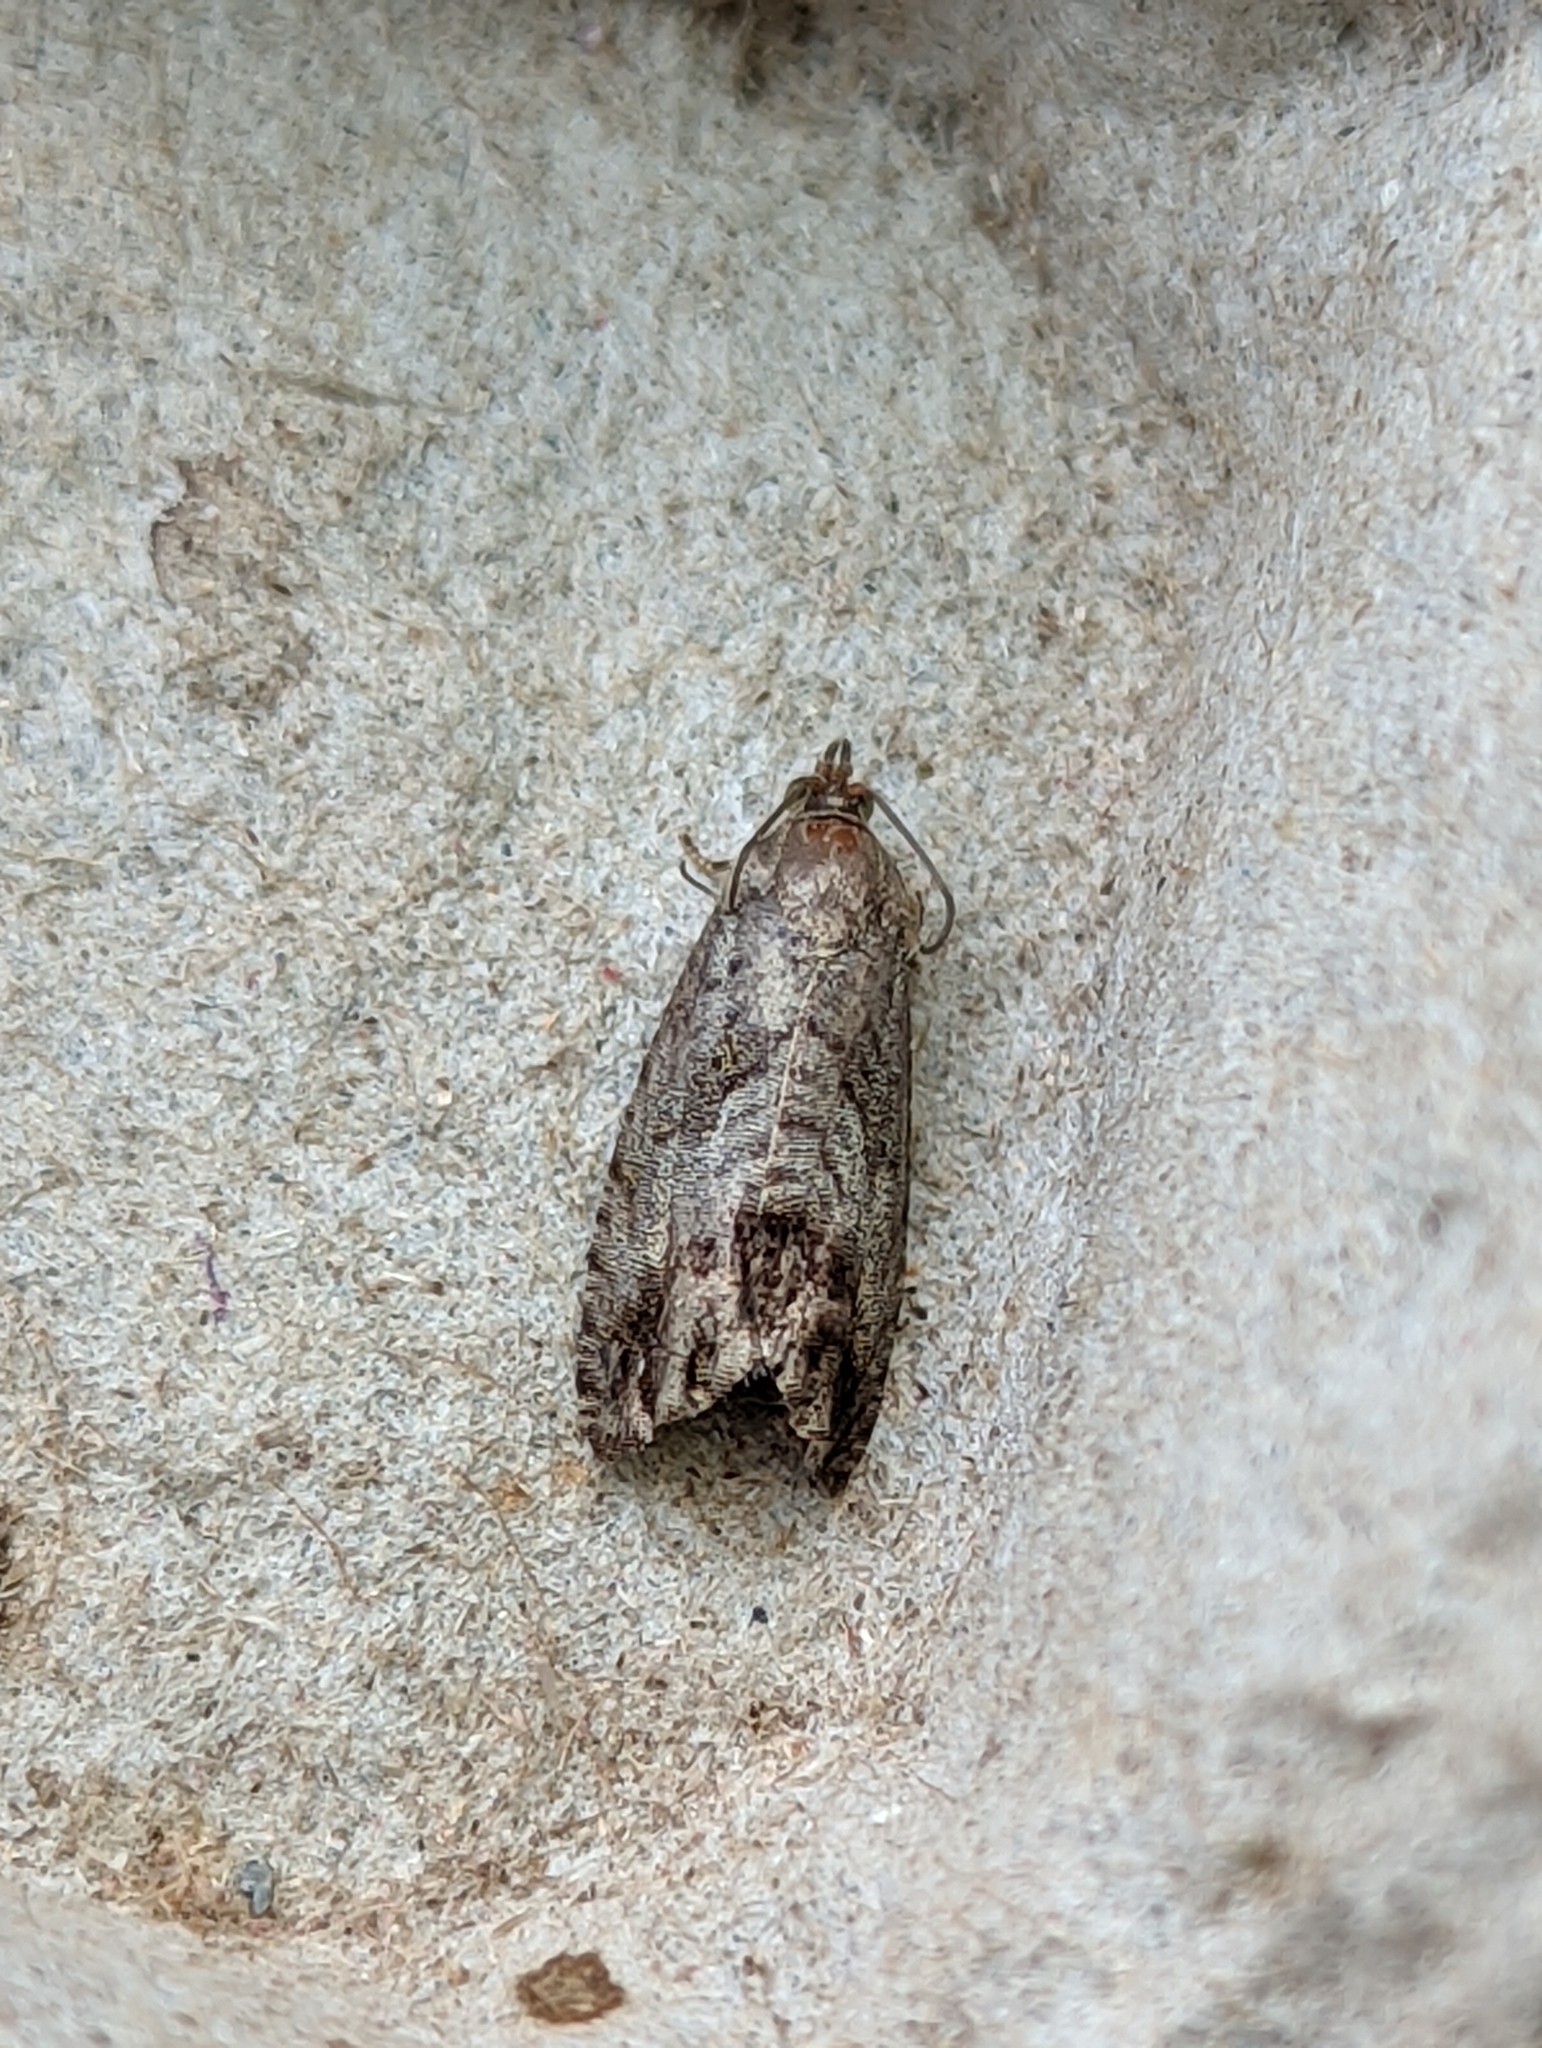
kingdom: Animalia
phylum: Arthropoda
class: Insecta
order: Lepidoptera
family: Tortricidae
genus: Cydia
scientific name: Cydia splendana
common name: De: kastanienwickler, eichenwickler es: oruga de la castaña fr: carpocapse des châtaignes it: cidia o tortrice tardiva delle castagne pt: bichado das castanhas gb: acorn moth, chestnut fruit tortrix
